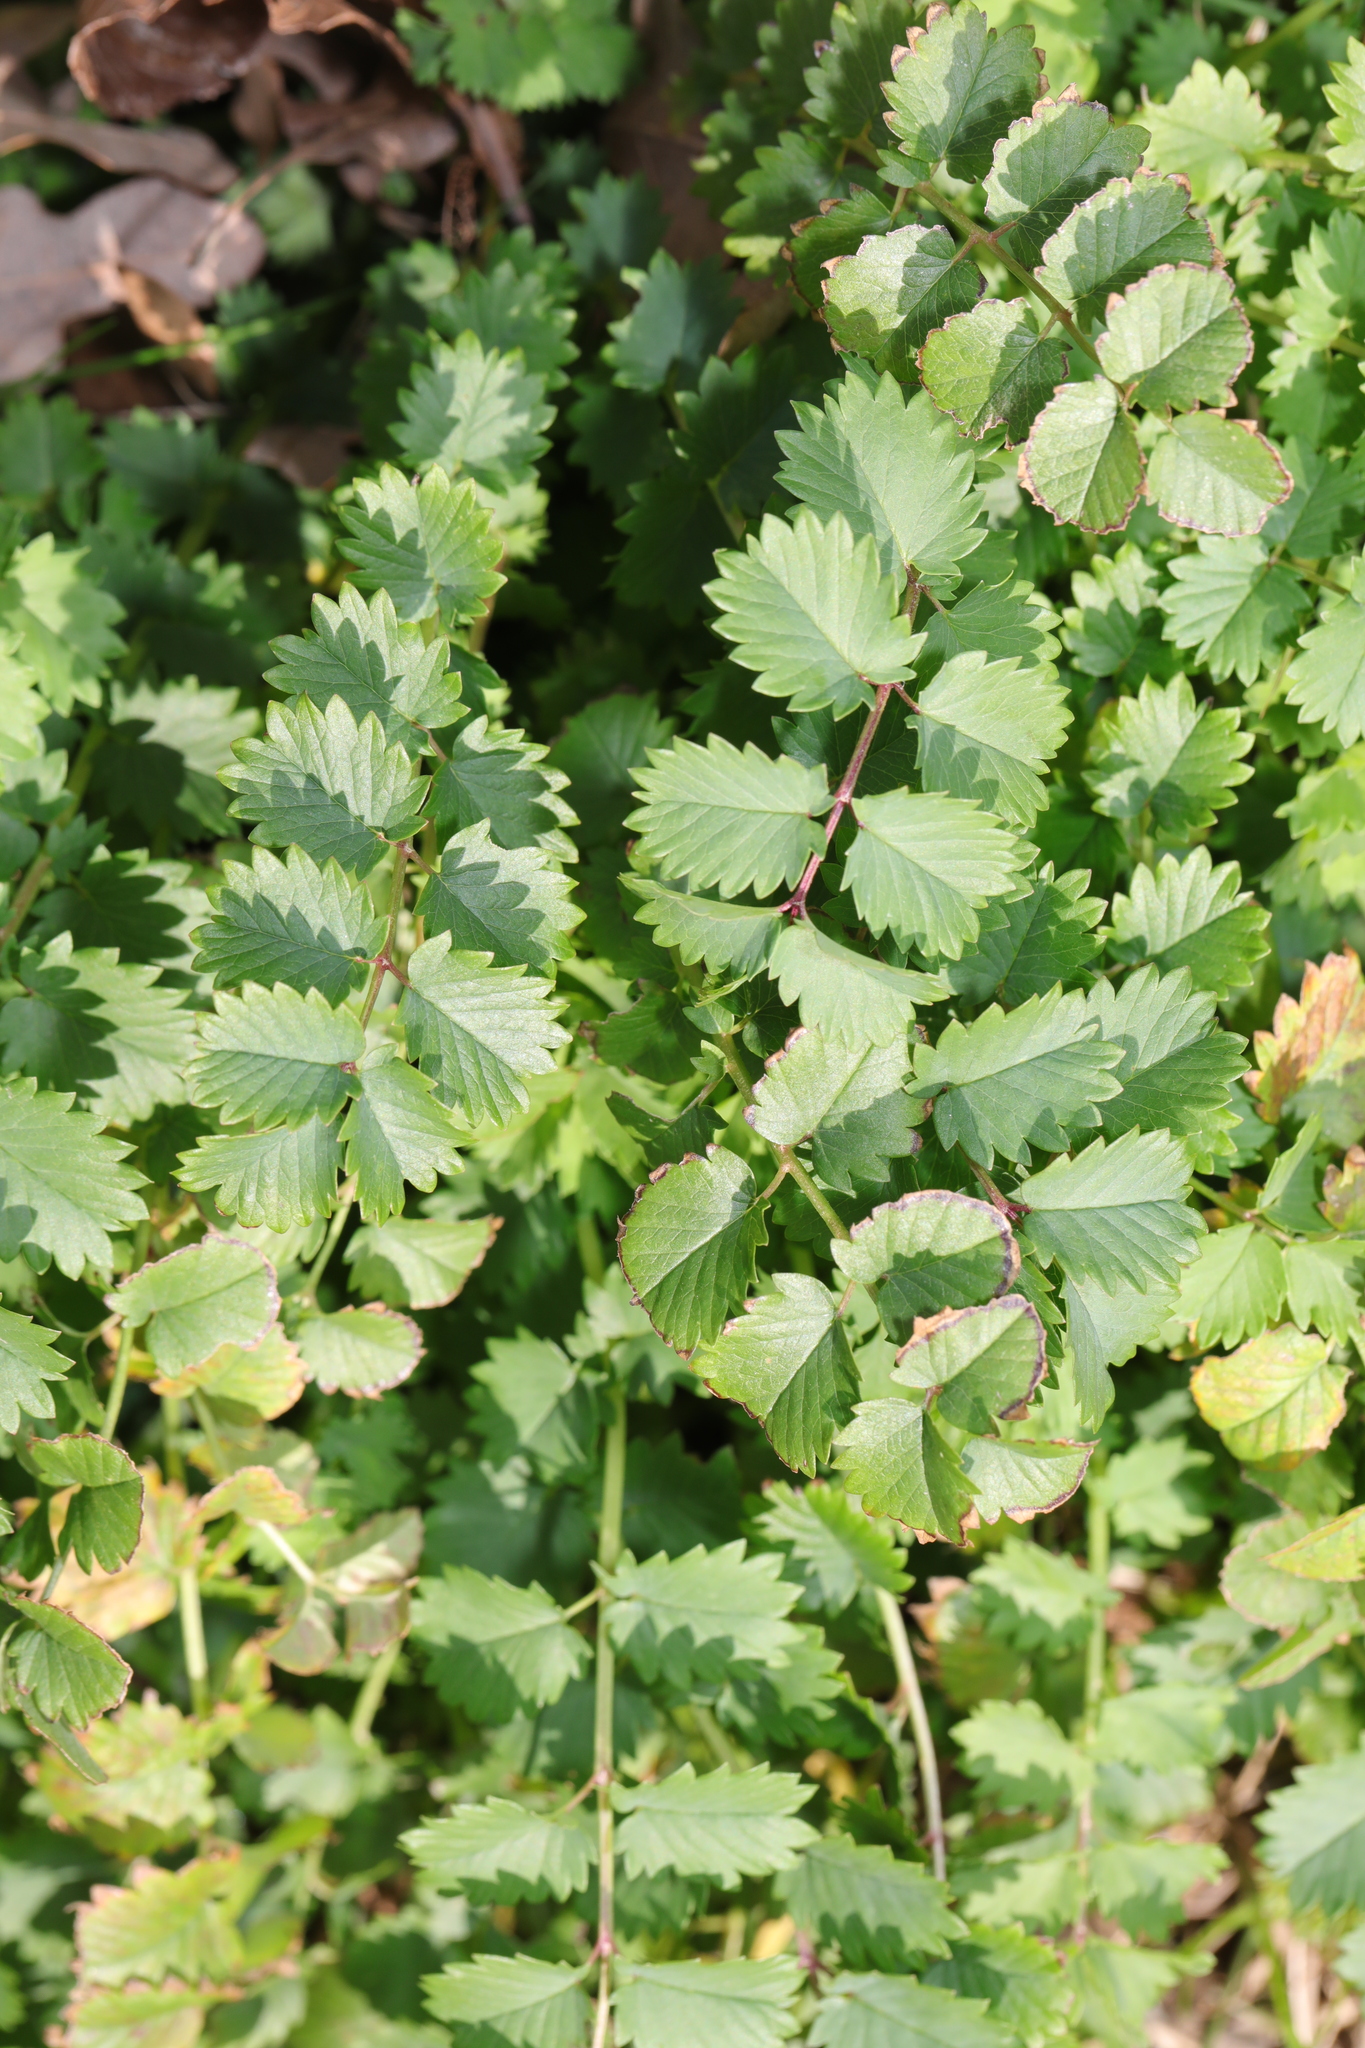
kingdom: Plantae
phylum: Tracheophyta
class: Magnoliopsida
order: Rosales
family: Rosaceae
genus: Poterium
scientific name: Poterium sanguisorba
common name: Salad burnet
